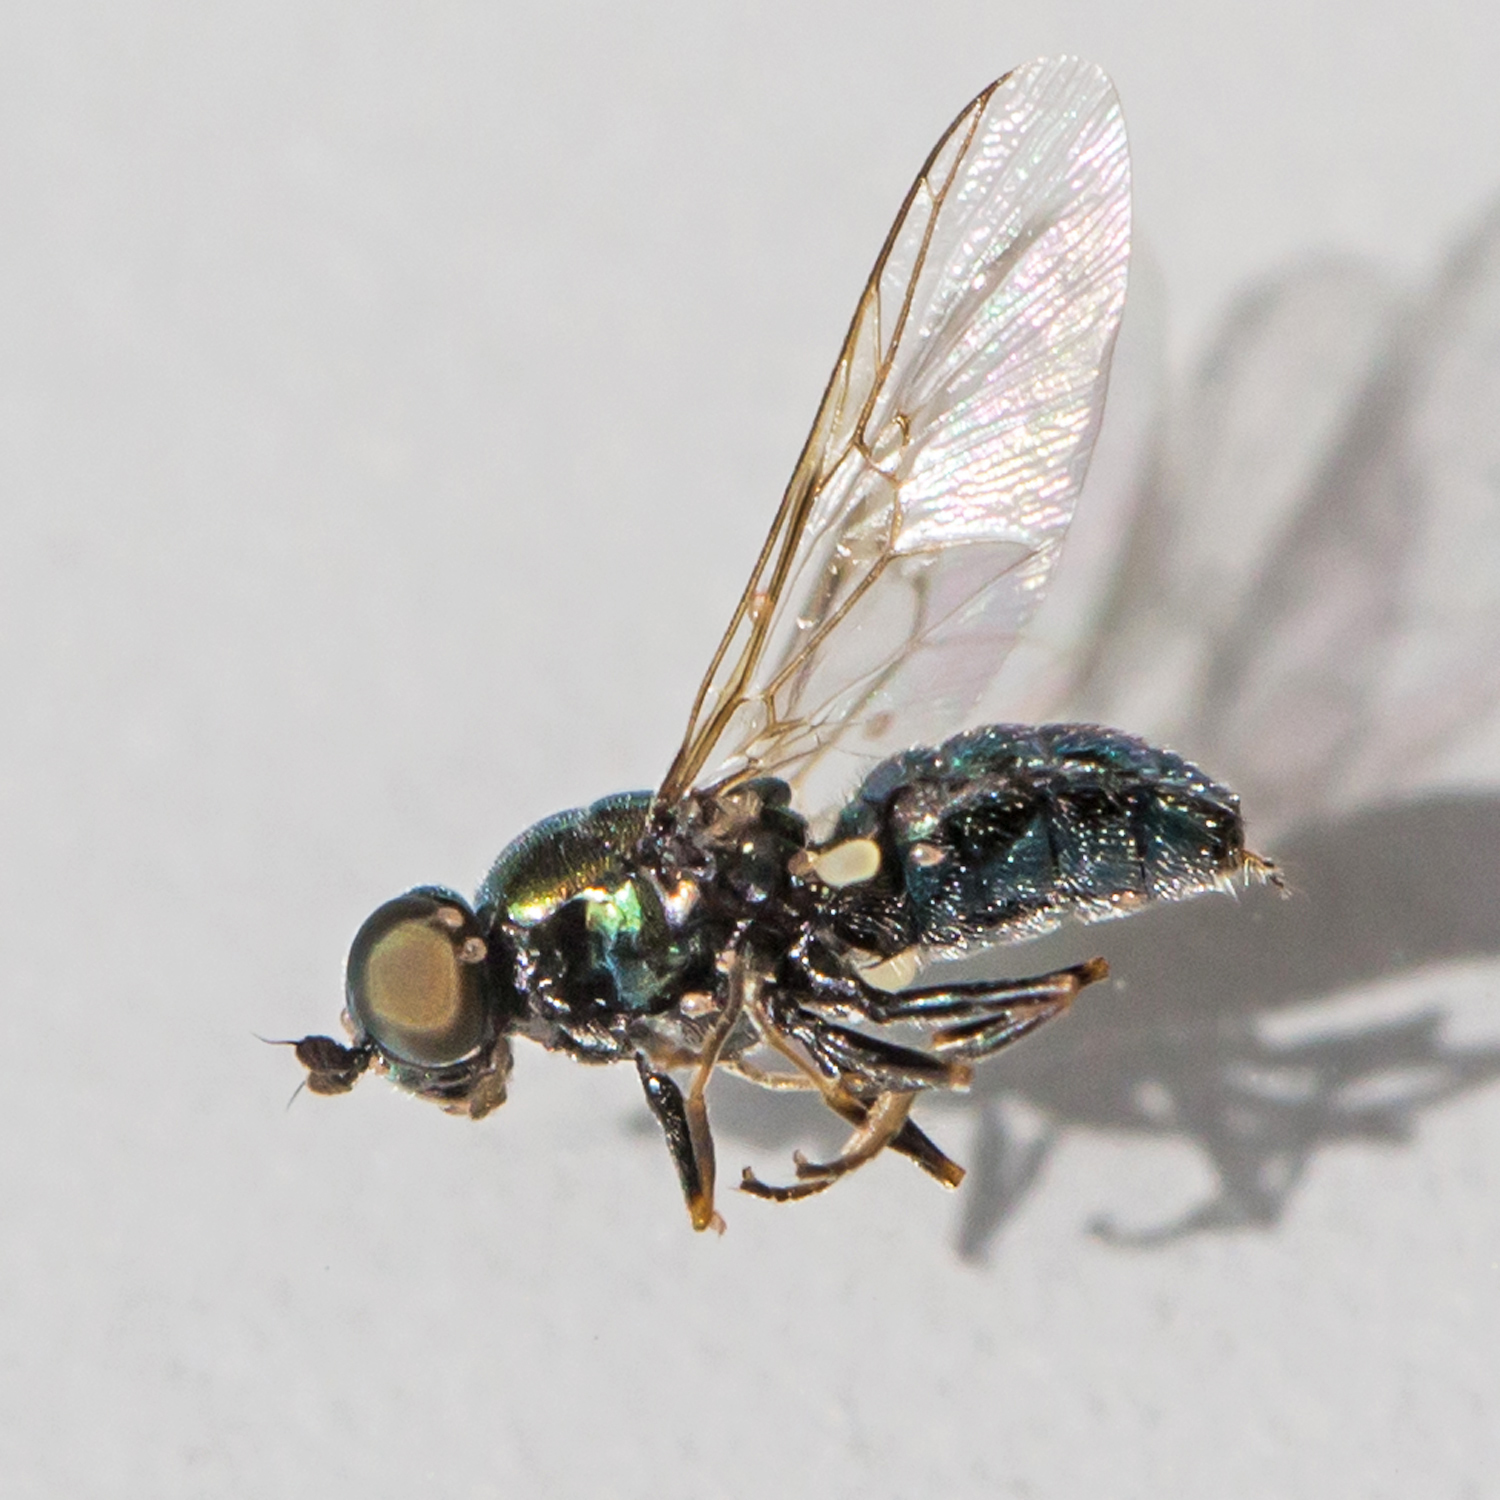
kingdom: Animalia
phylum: Arthropoda
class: Insecta
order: Diptera
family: Stratiomyidae
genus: Microchrysa
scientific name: Microchrysa polita
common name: Black-horned gem
